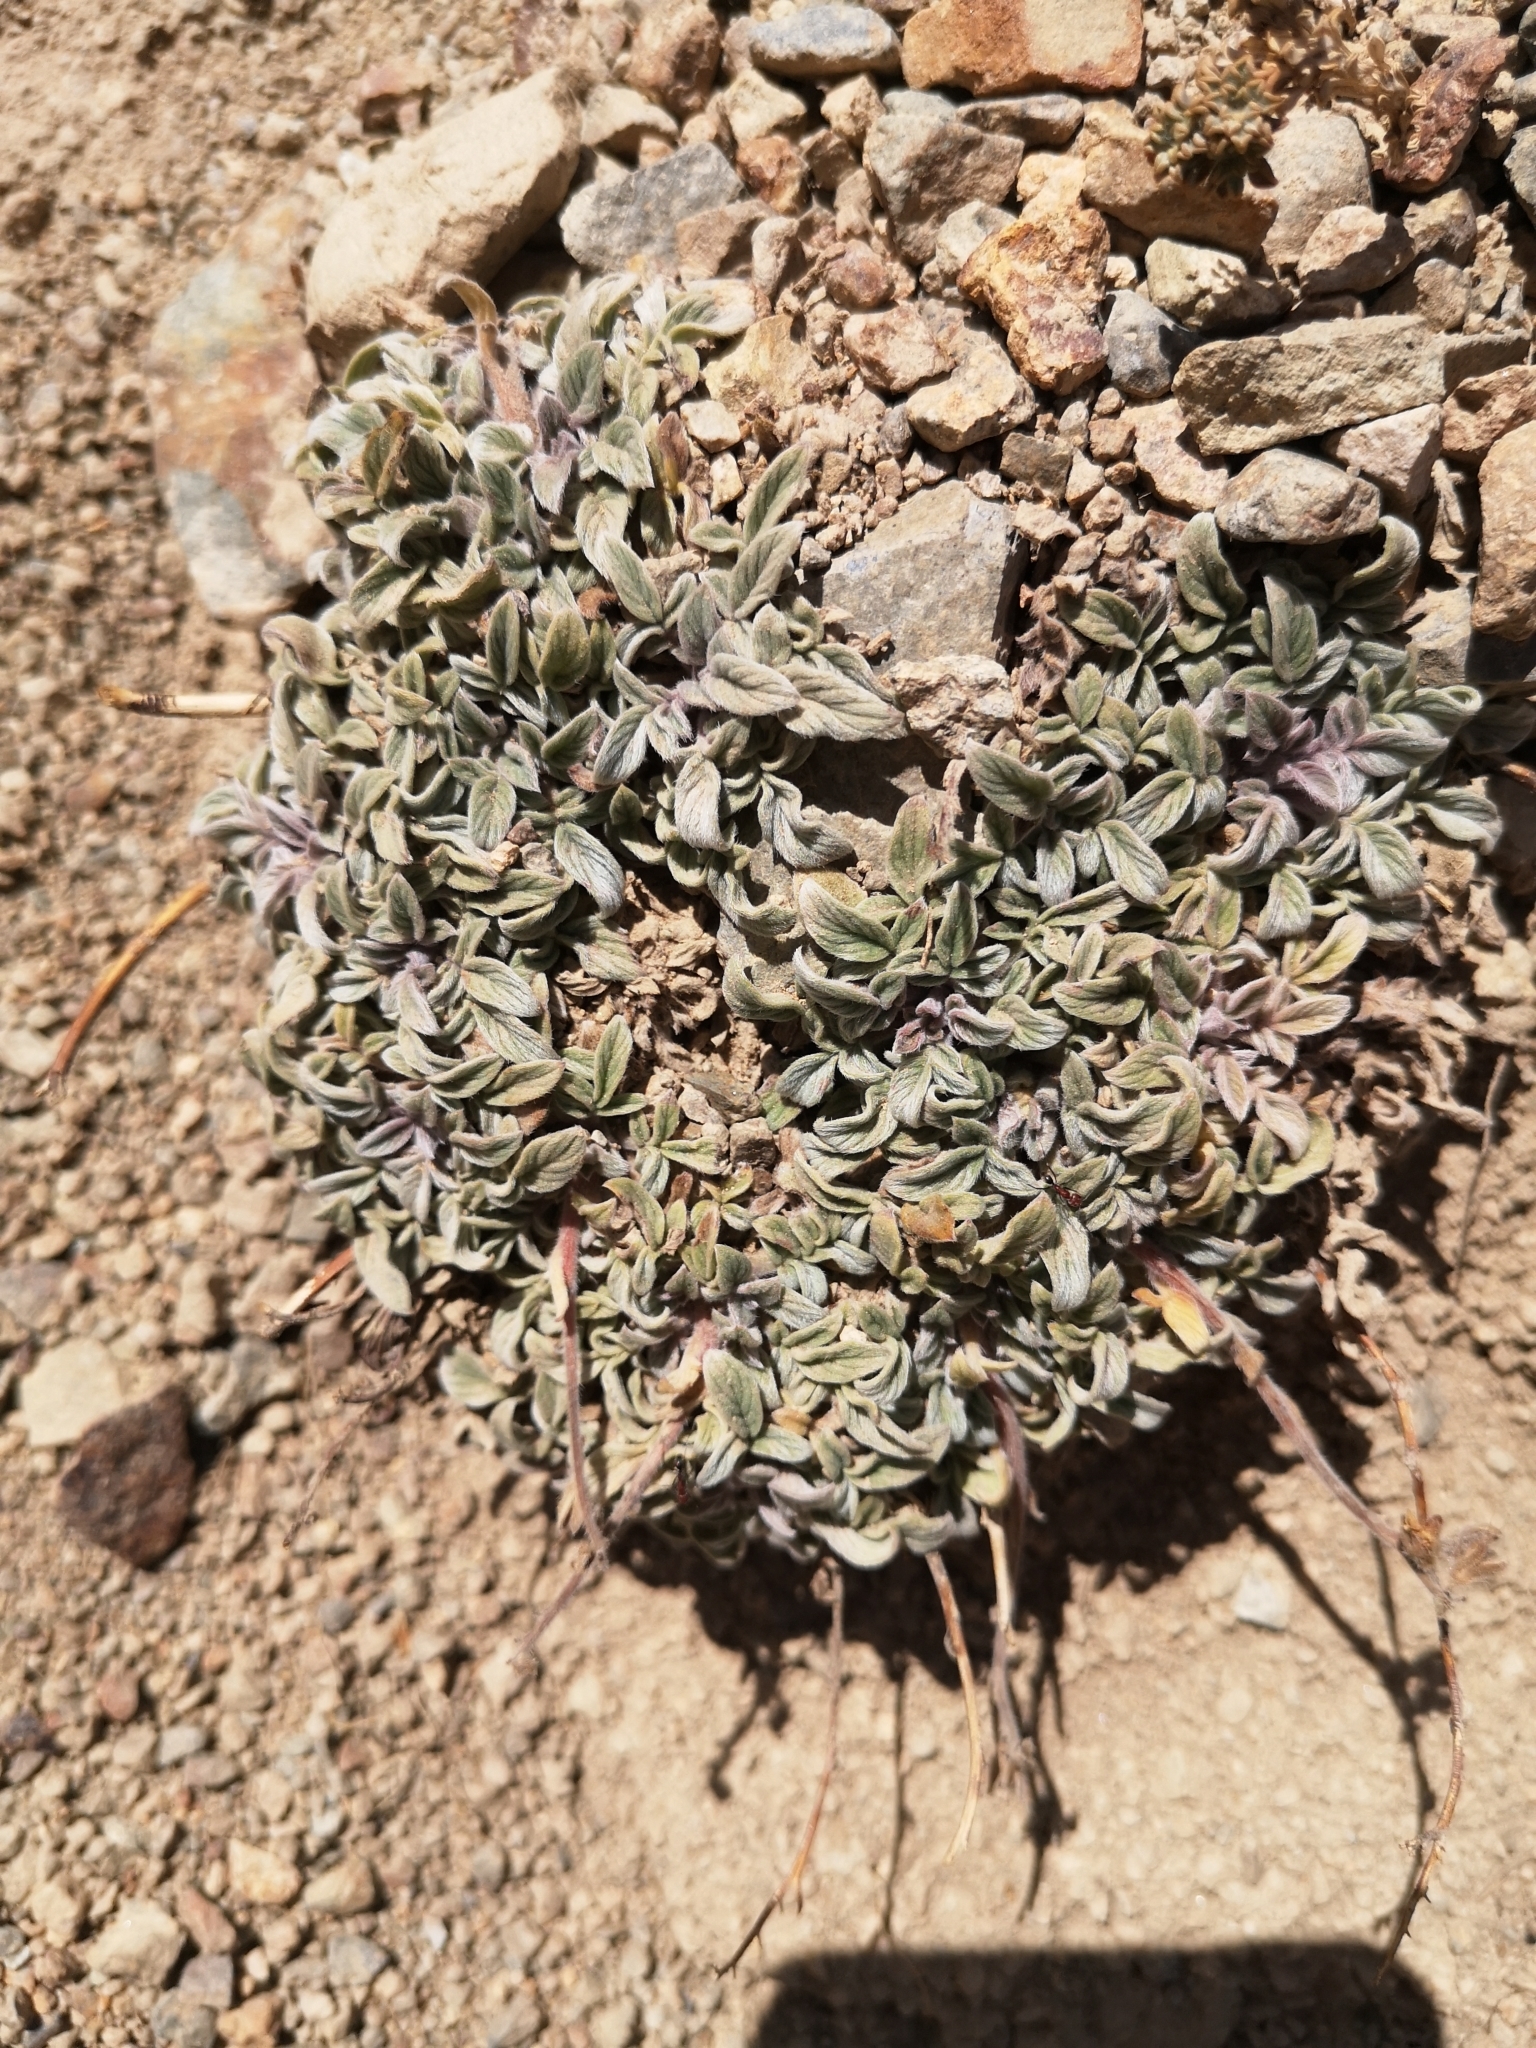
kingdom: Plantae
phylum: Tracheophyta
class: Magnoliopsida
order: Boraginales
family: Hydrophyllaceae
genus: Phacelia
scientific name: Phacelia secunda
